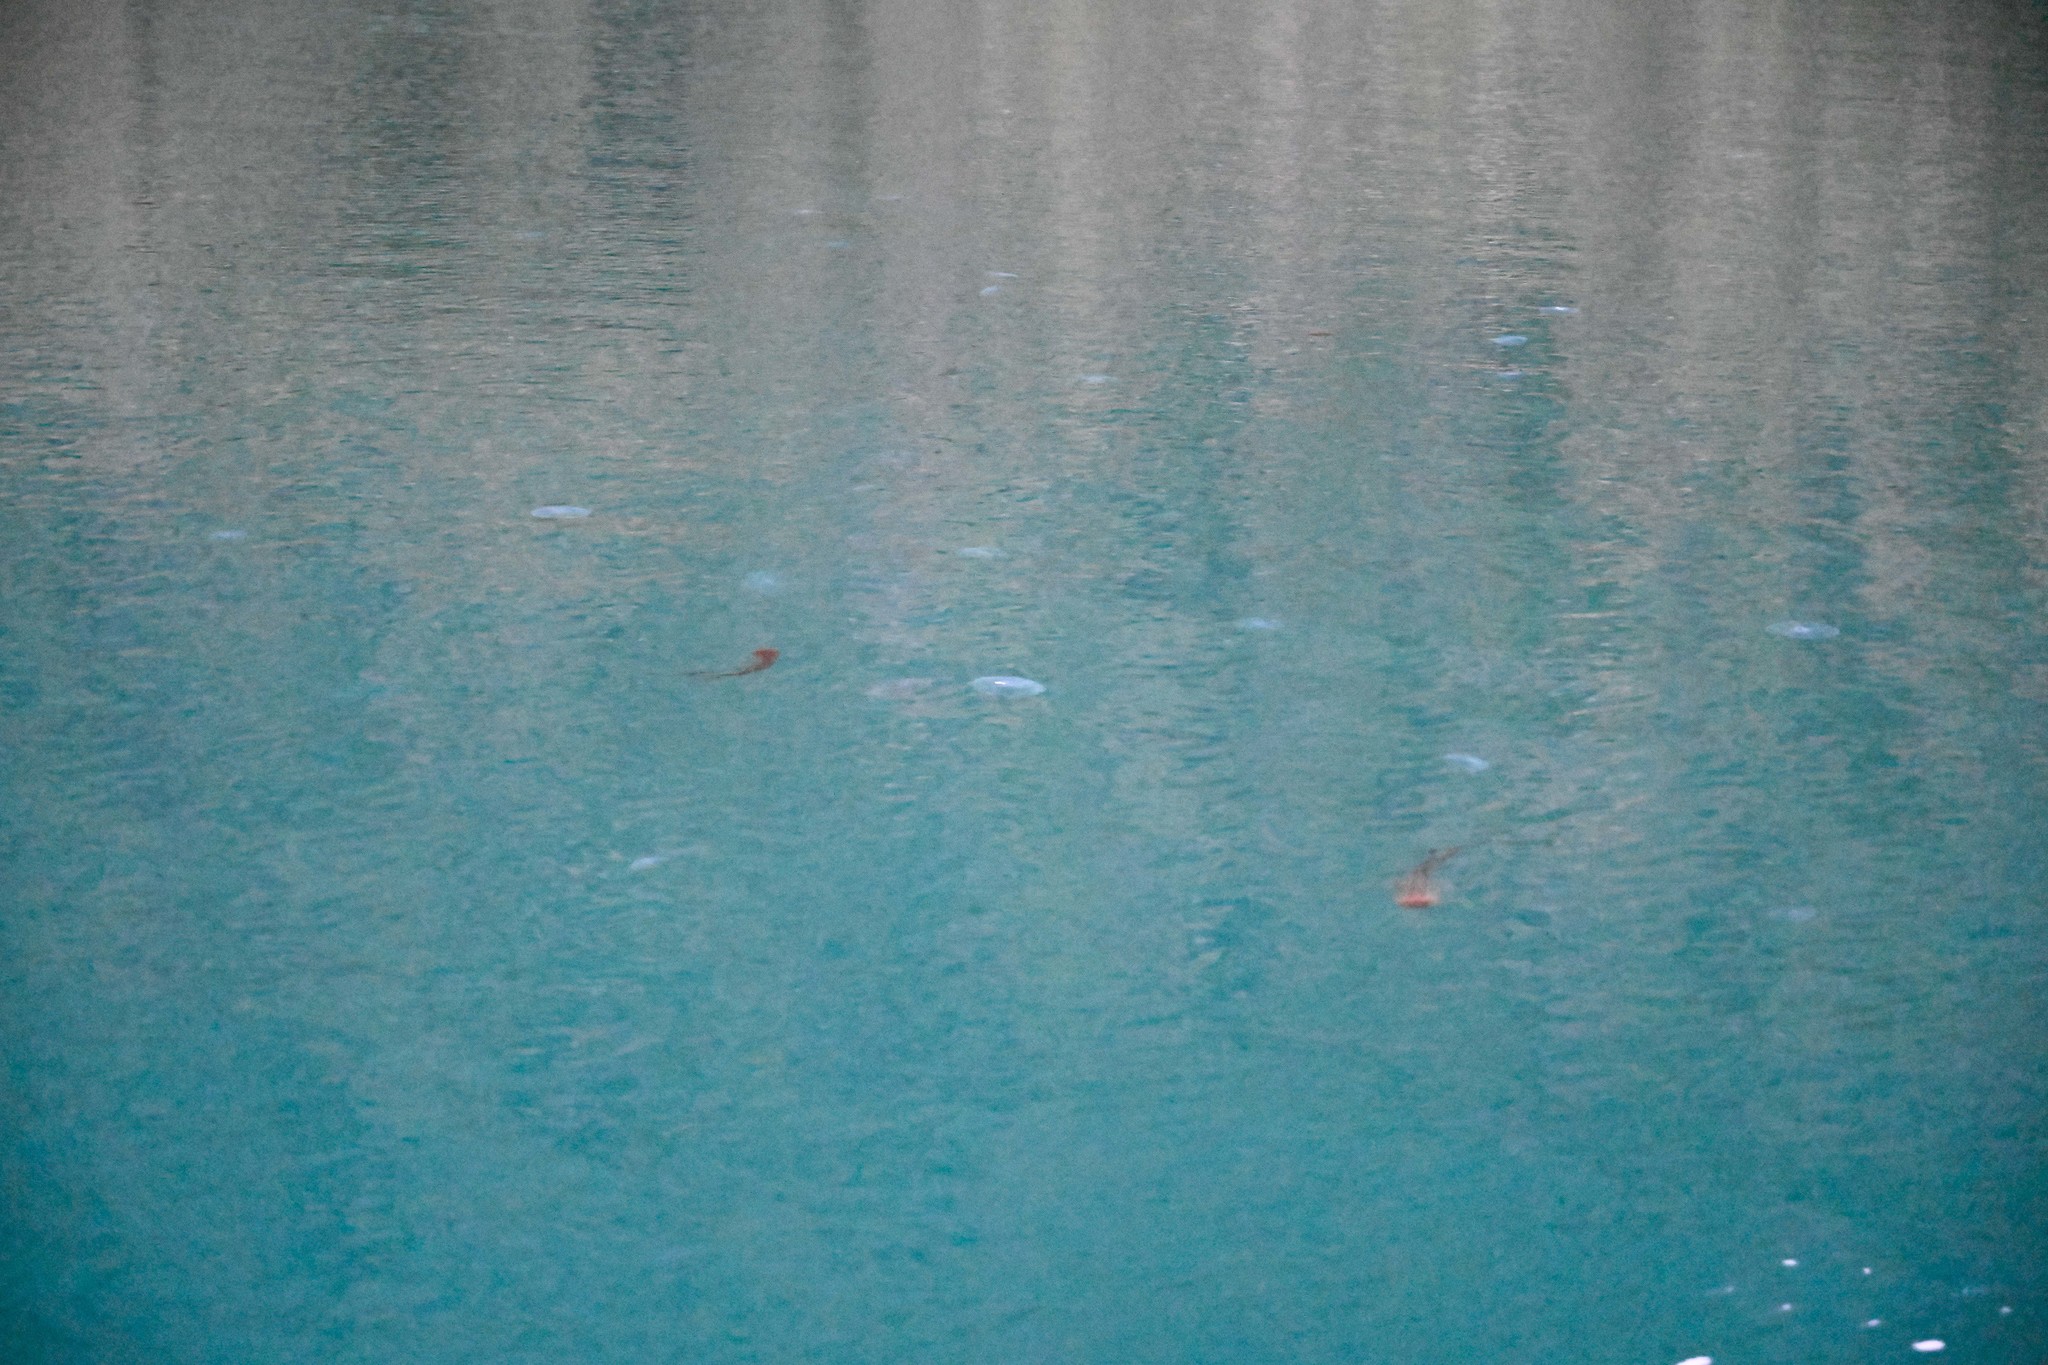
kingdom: Animalia
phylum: Cnidaria
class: Scyphozoa
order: Semaeostomeae
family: Cyaneidae
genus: Desmonema
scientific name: Desmonema gaudichaudi
